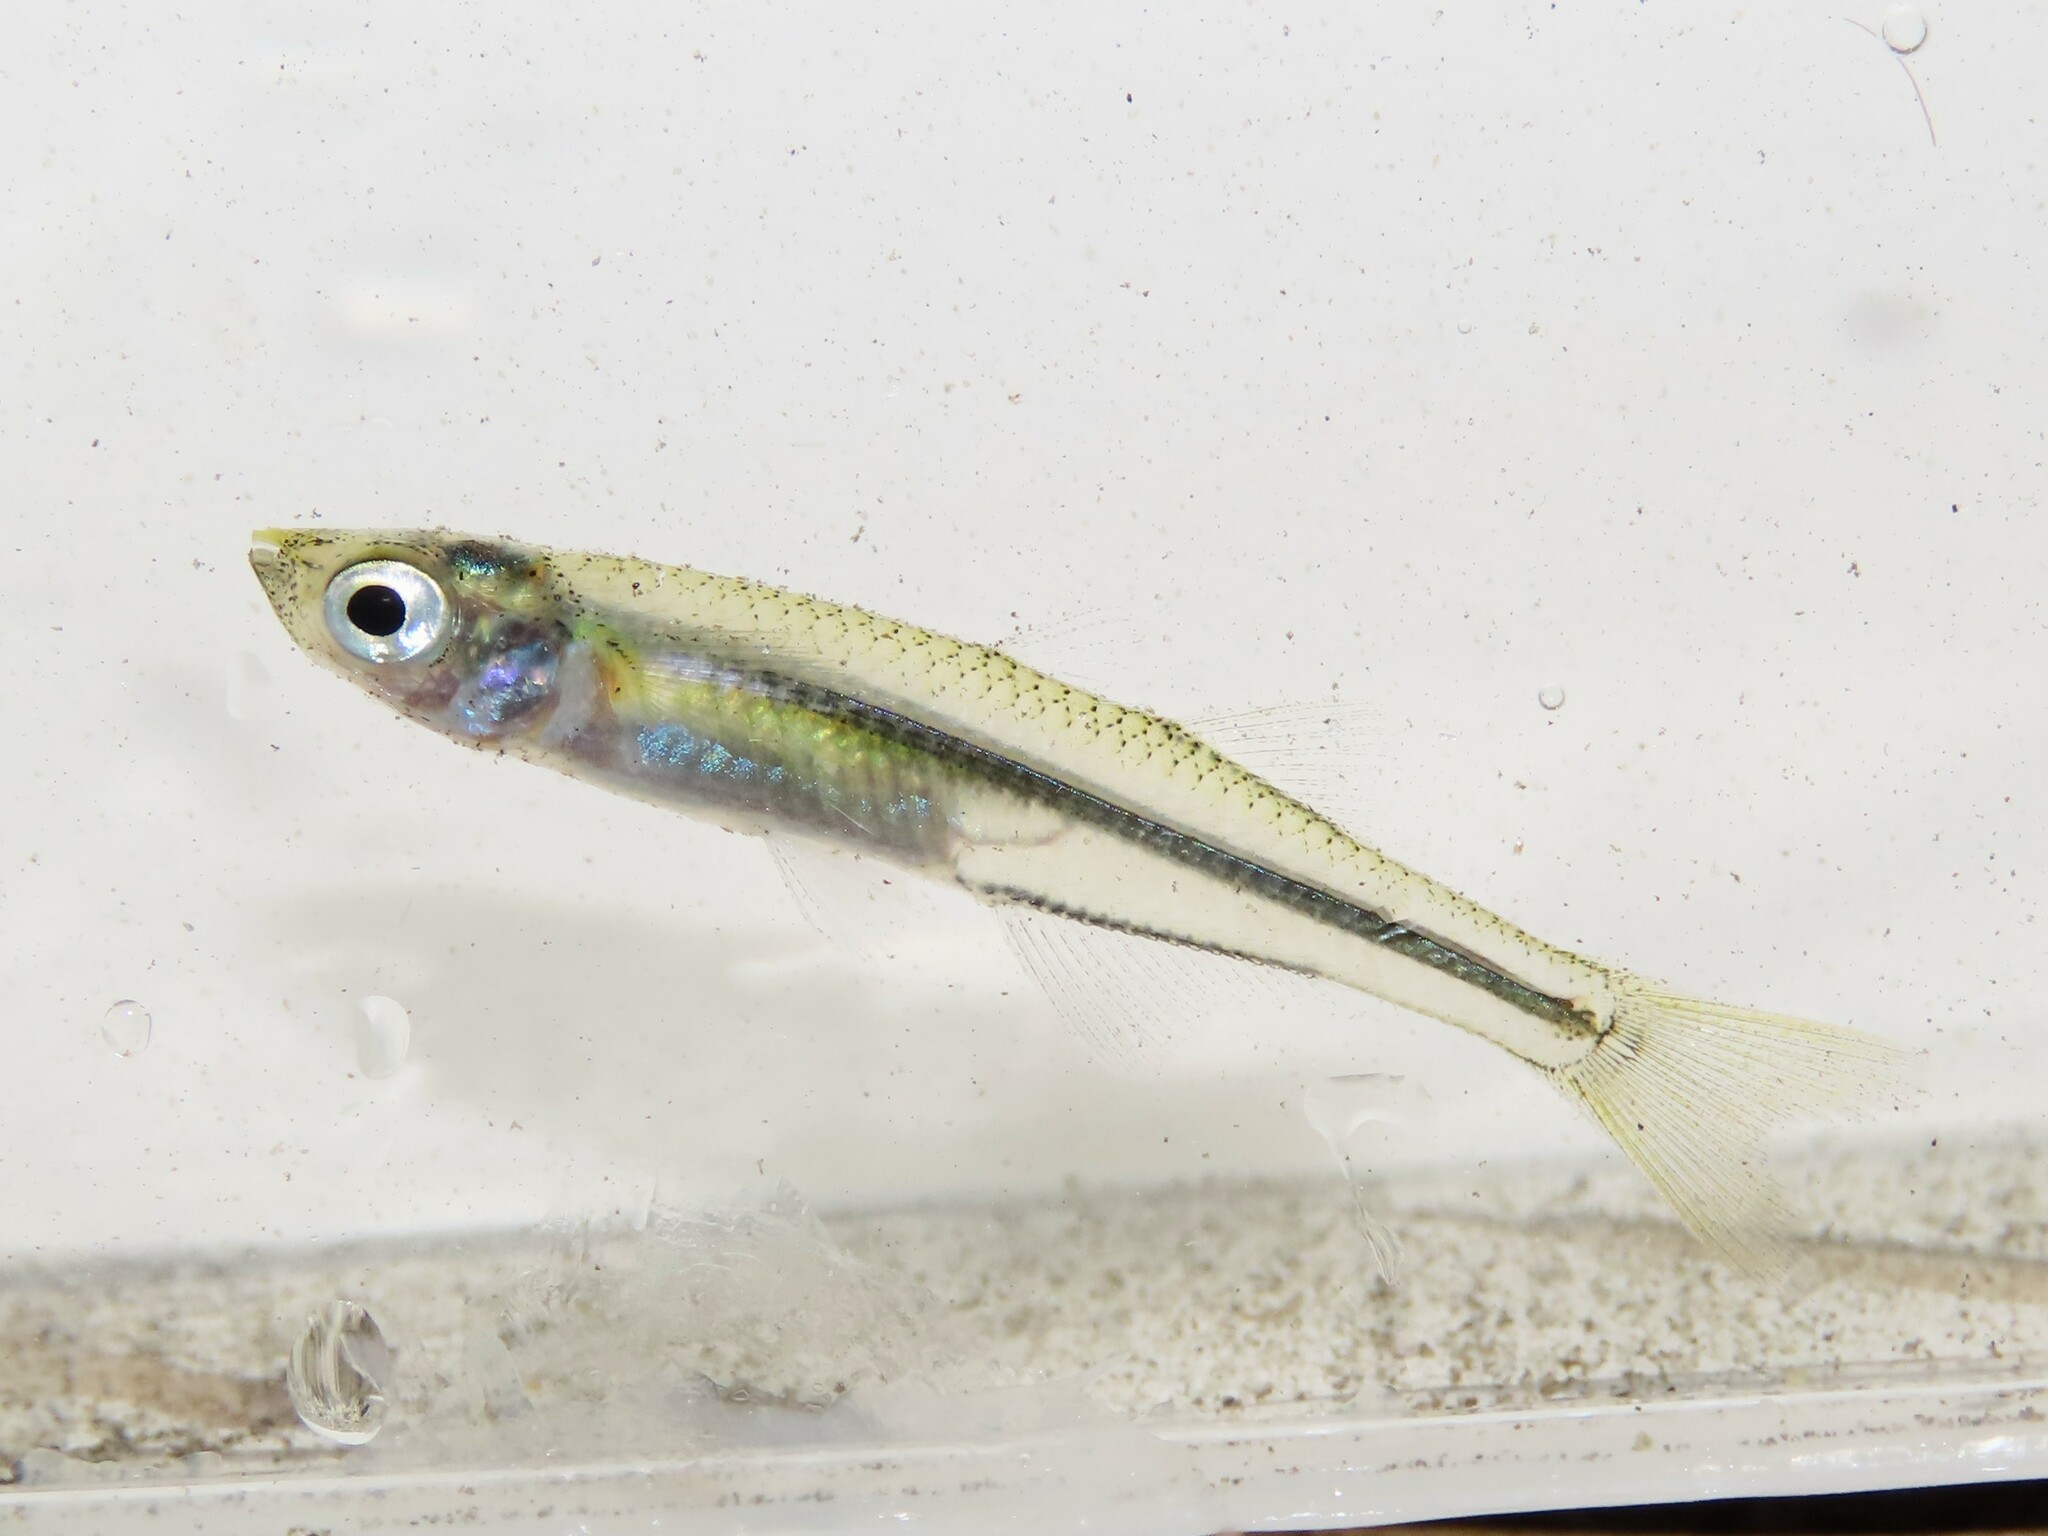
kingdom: Animalia
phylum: Chordata
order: Atheriniformes
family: Atherinopsidae
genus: Menidia
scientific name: Menidia beryllina
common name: Inland silverside
